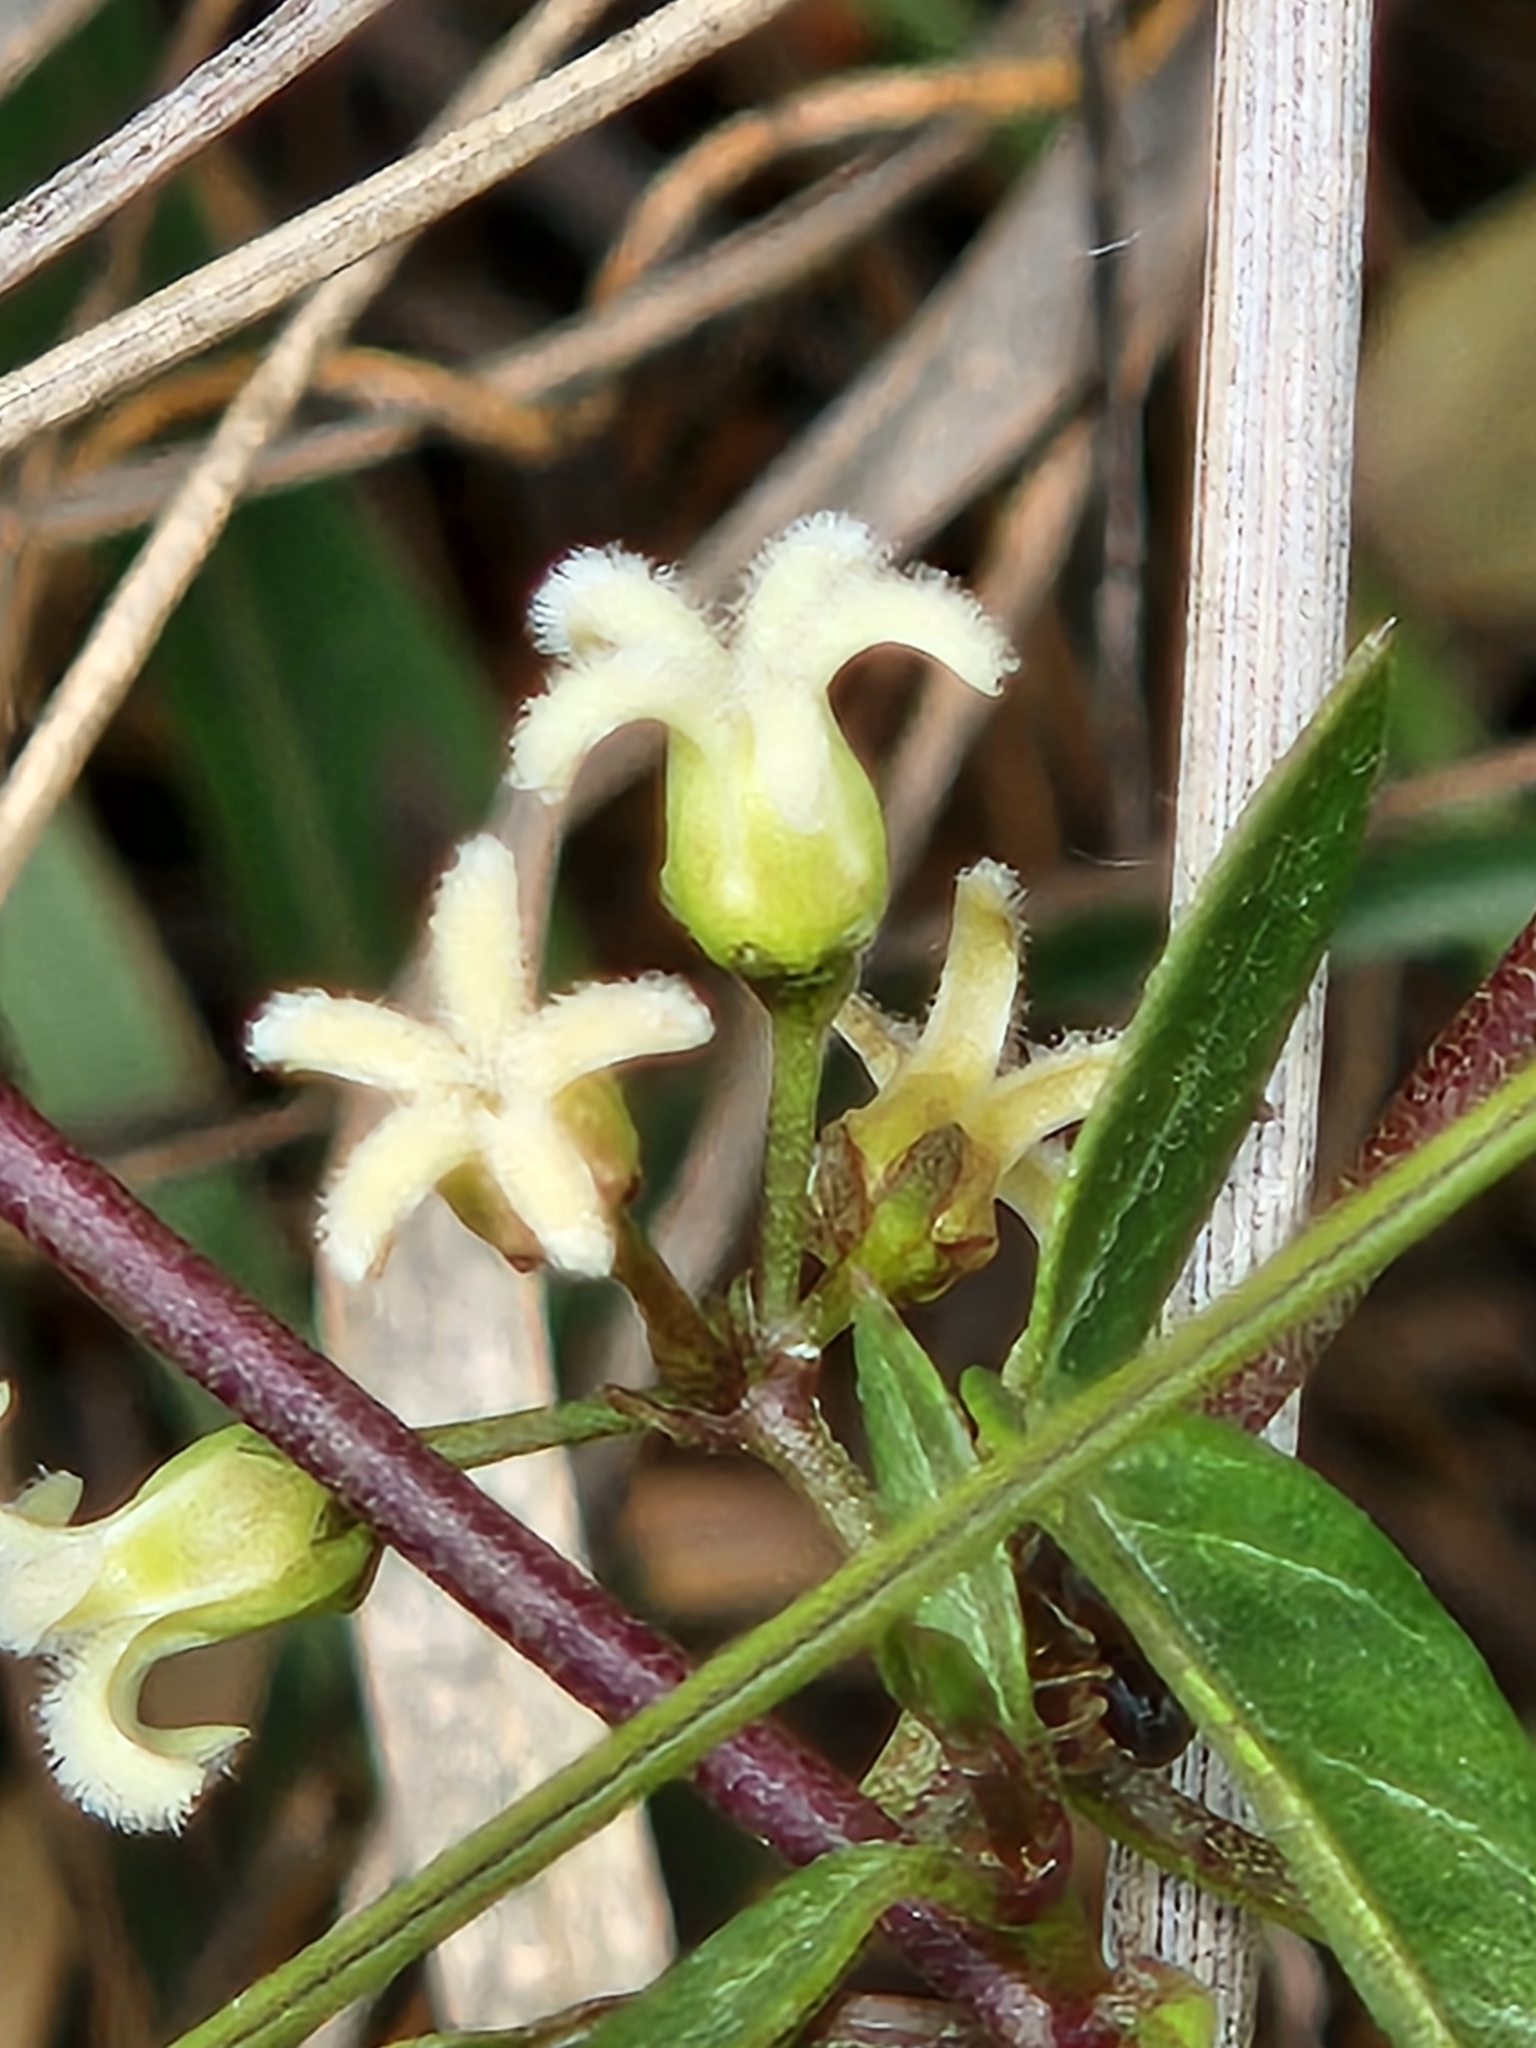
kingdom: Plantae
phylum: Tracheophyta
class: Magnoliopsida
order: Gentianales
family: Apocynaceae
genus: Metastelma
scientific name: Metastelma barbigerum
